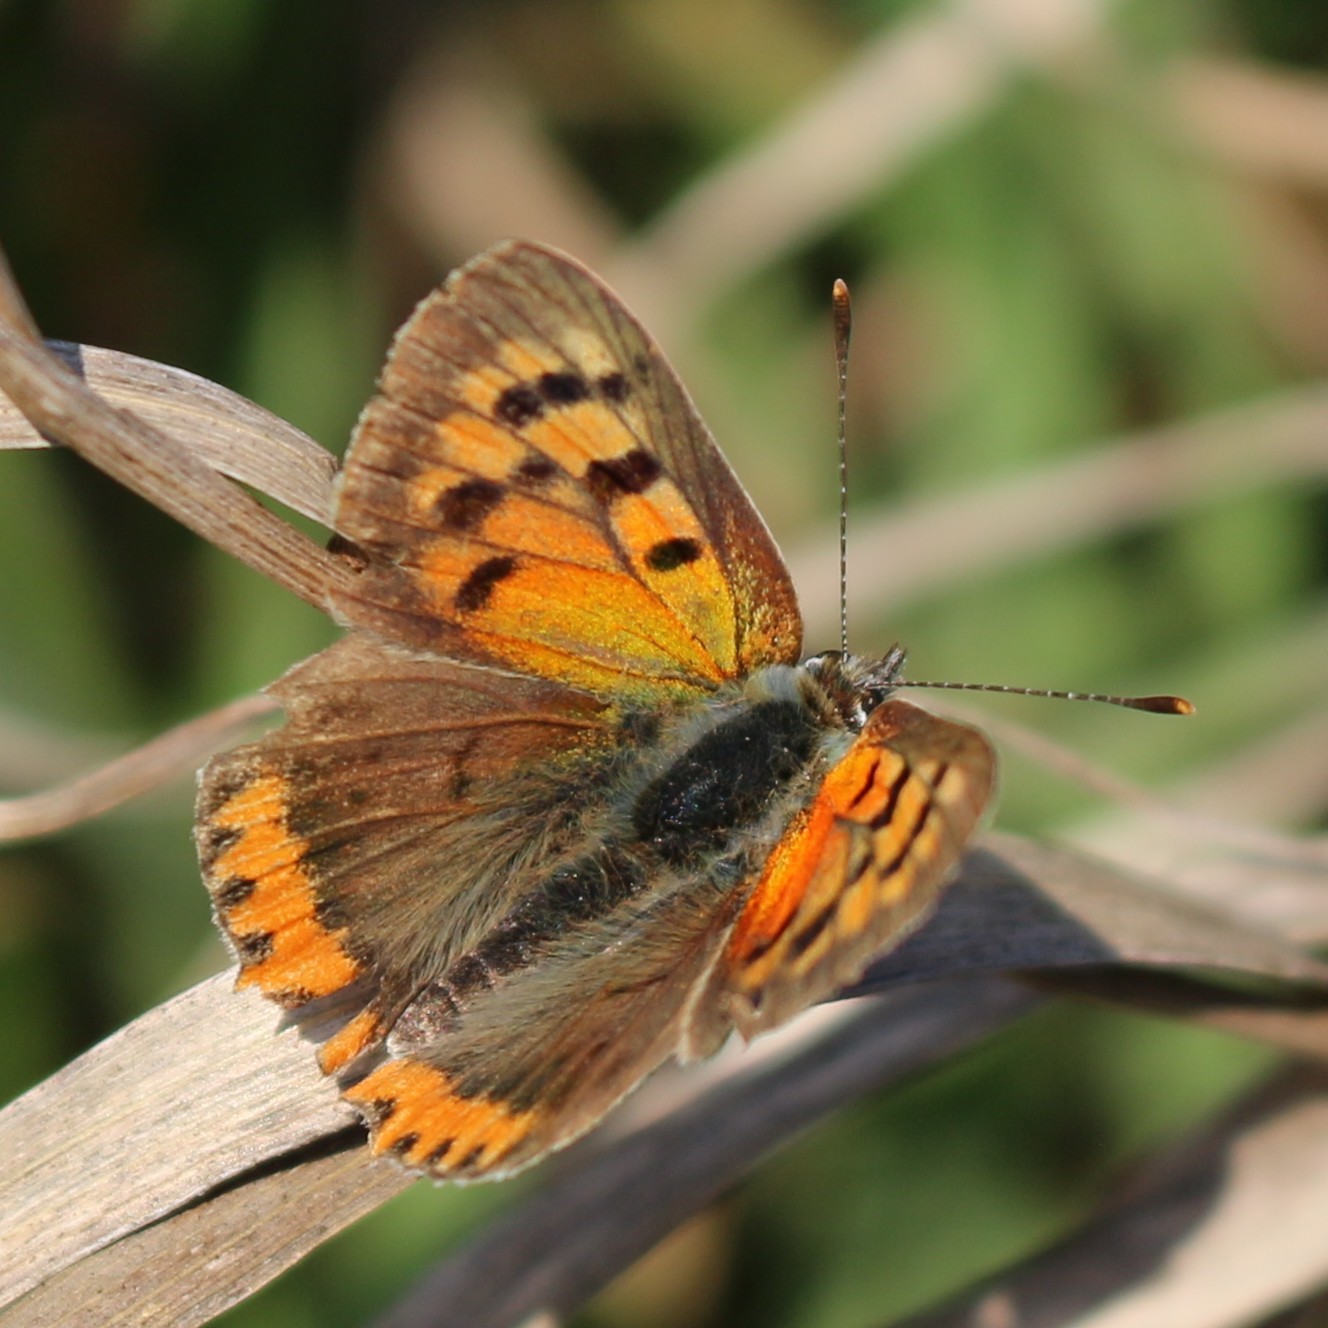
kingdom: Animalia
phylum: Arthropoda
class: Insecta
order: Lepidoptera
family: Lycaenidae
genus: Lycaena
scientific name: Lycaena phlaeas
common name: Small copper
